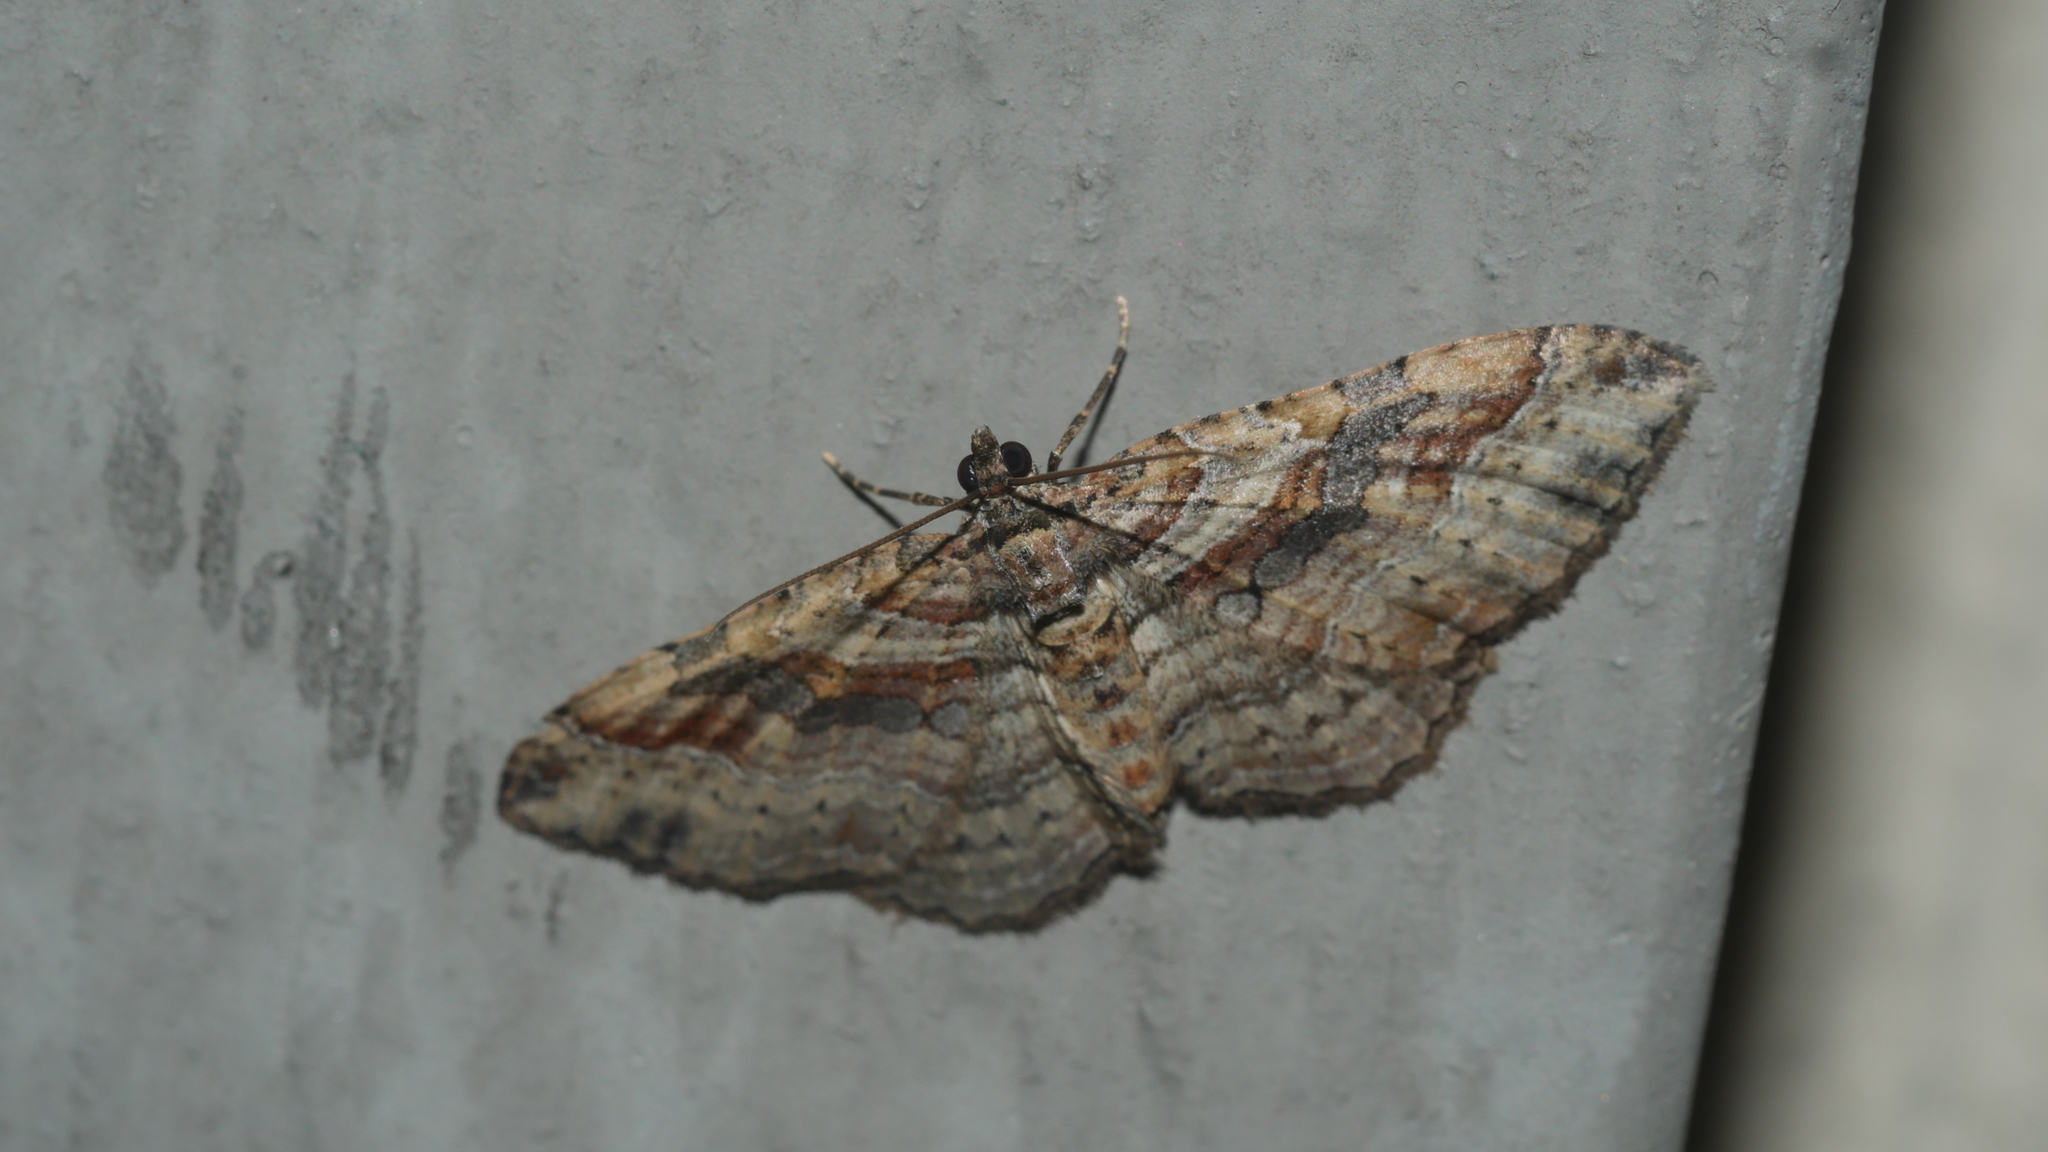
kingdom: Animalia
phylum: Arthropoda
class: Insecta
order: Lepidoptera
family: Geometridae
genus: Costaconvexa
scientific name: Costaconvexa centrostrigaria
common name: Bent-line carpet
